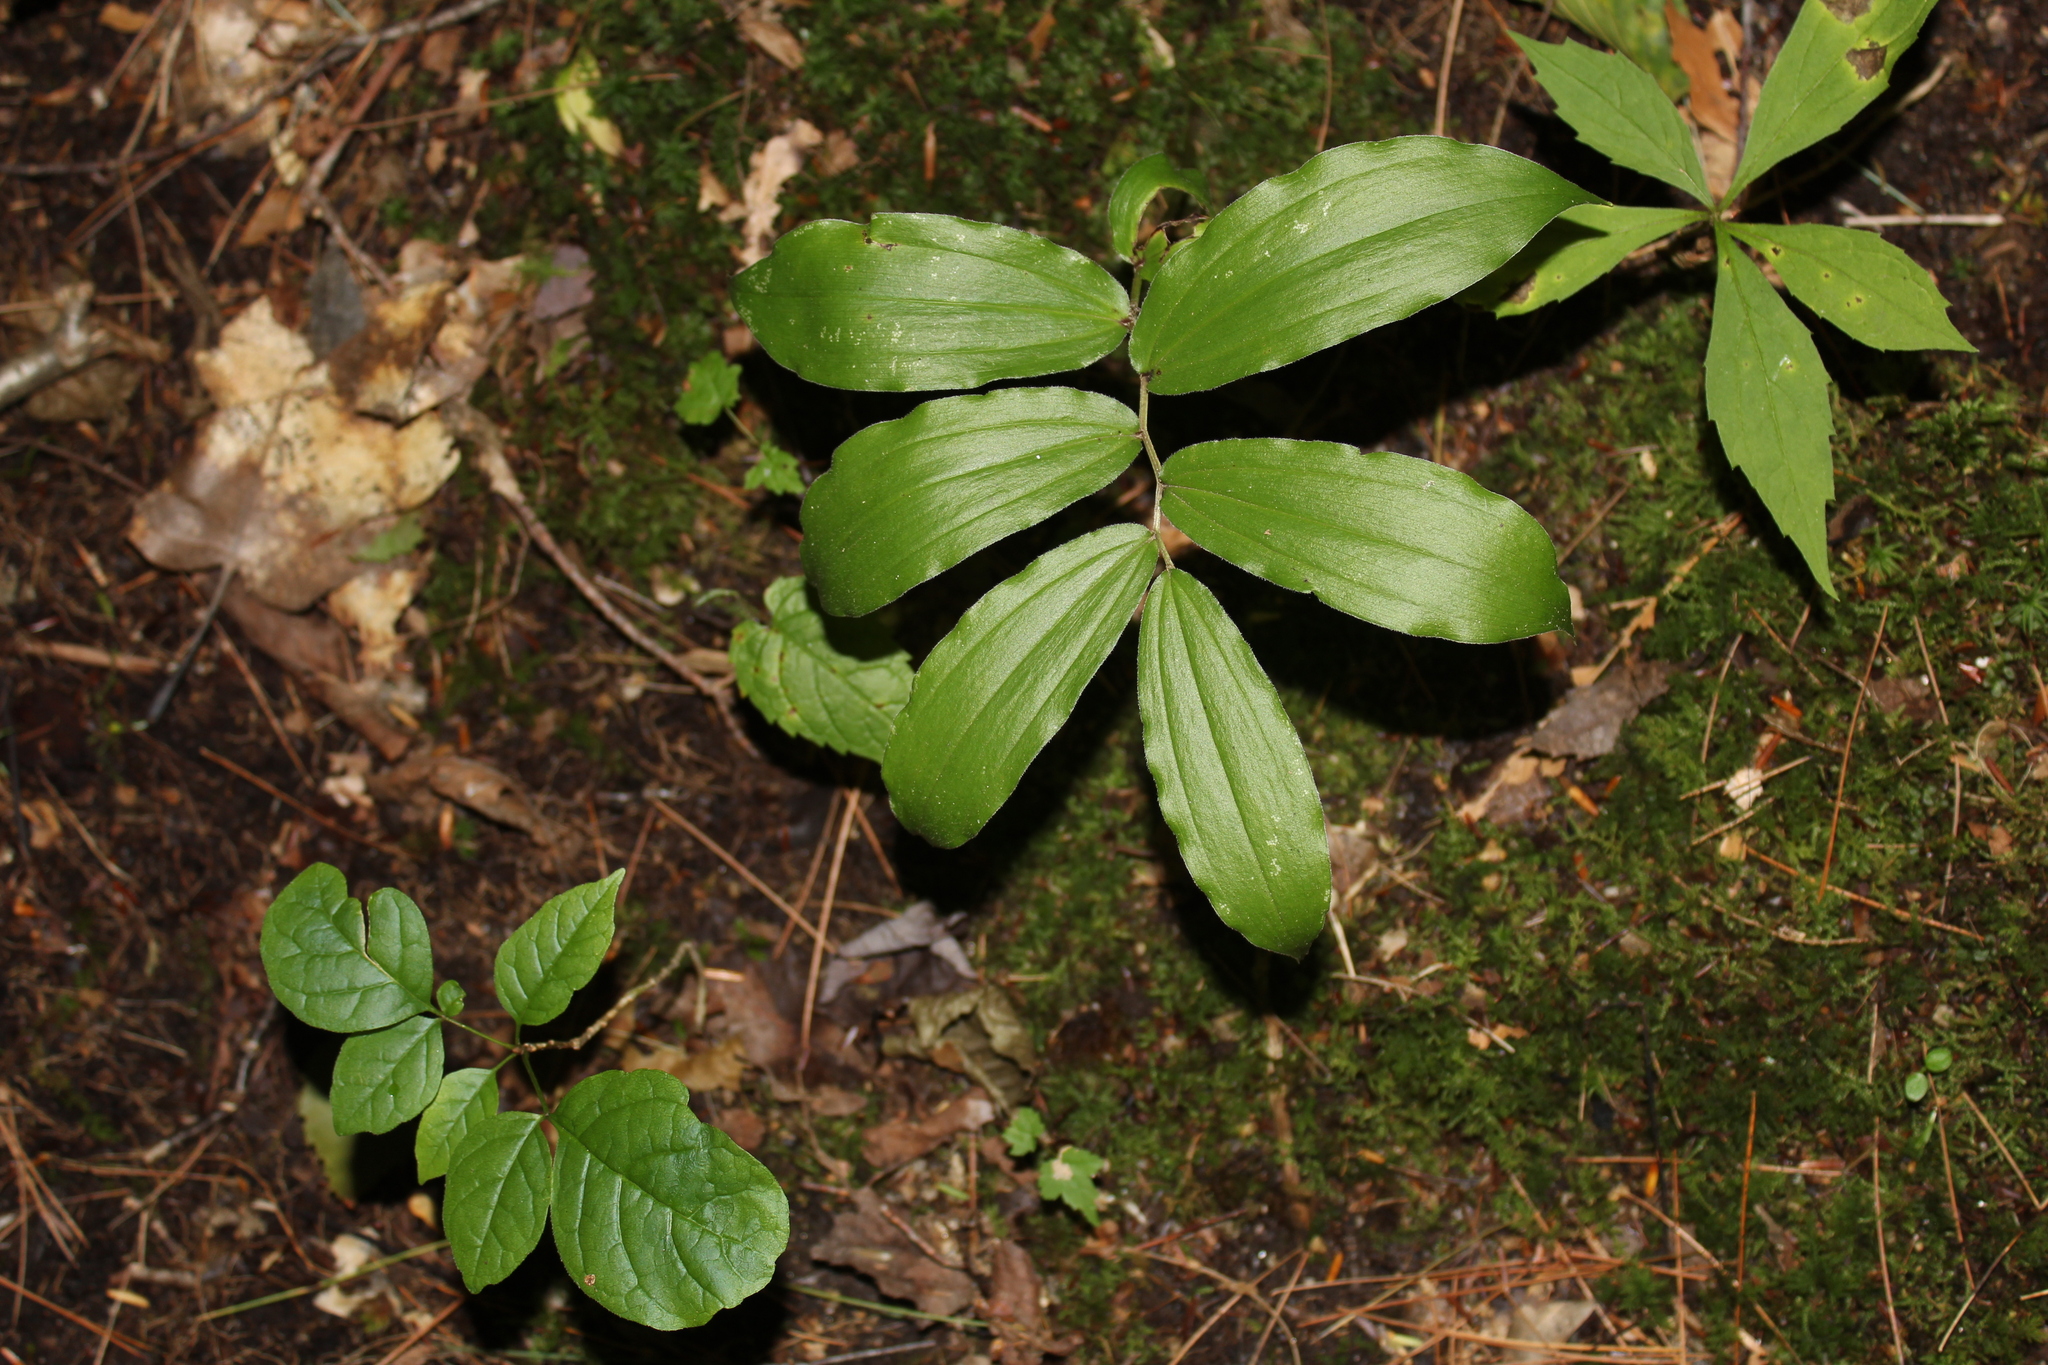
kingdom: Plantae
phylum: Tracheophyta
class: Liliopsida
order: Asparagales
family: Asparagaceae
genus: Maianthemum
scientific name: Maianthemum racemosum
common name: False spikenard
